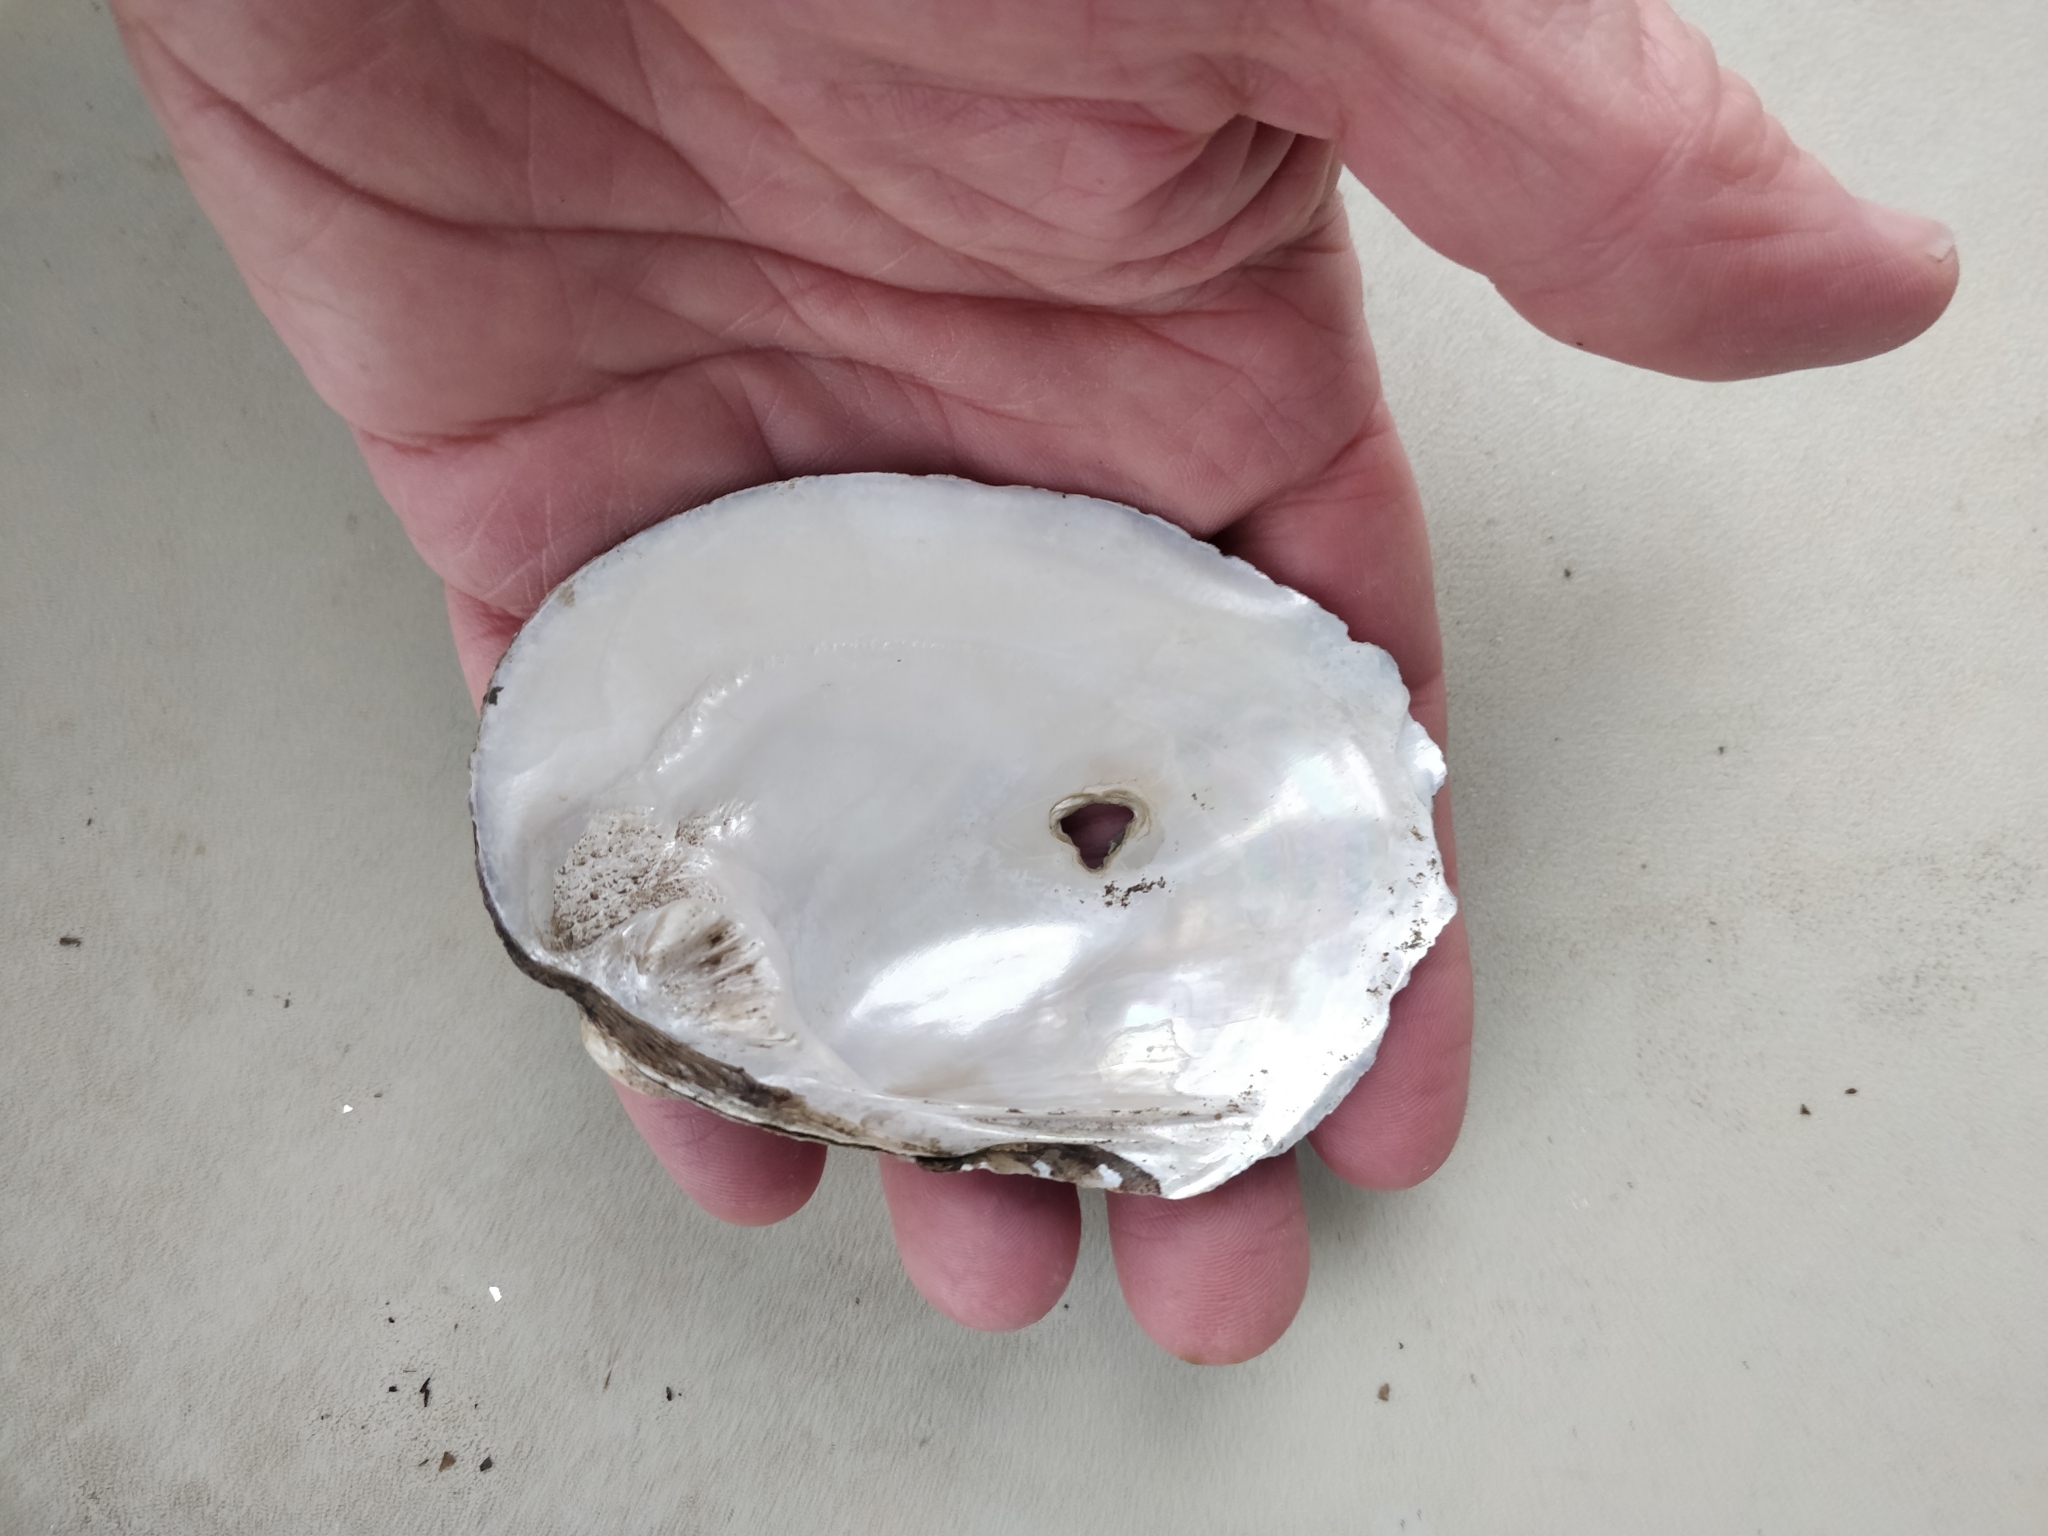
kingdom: Animalia
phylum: Mollusca
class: Bivalvia
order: Unionida
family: Unionidae
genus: Amblema
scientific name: Amblema plicata
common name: Threeridge
